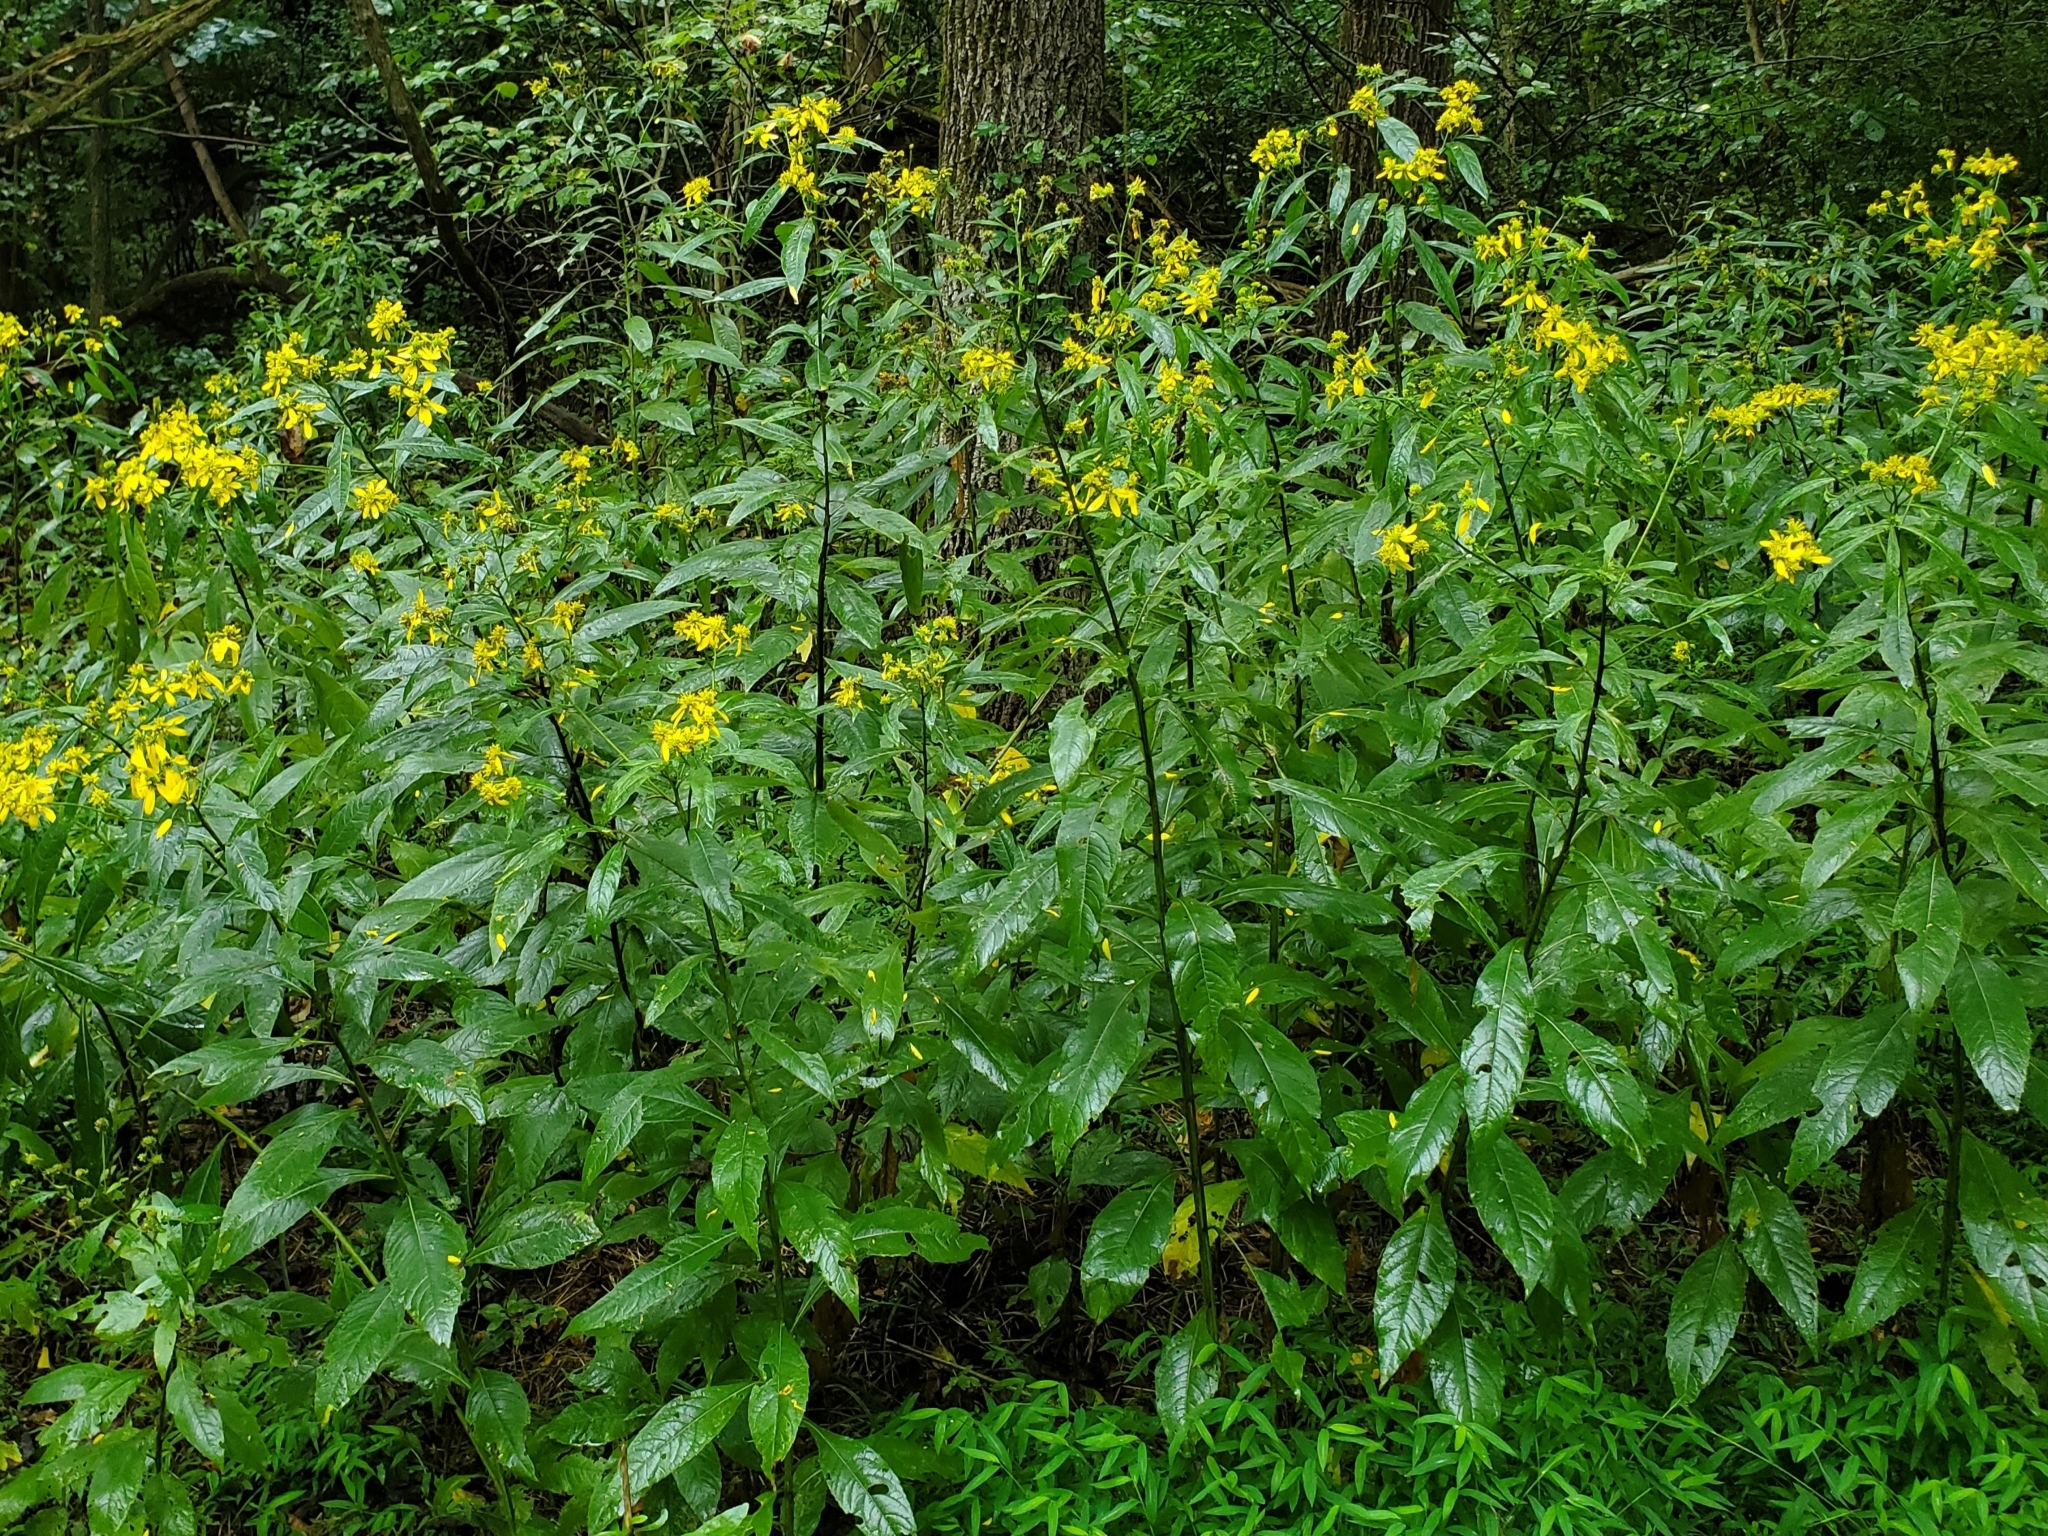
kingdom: Plantae
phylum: Tracheophyta
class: Magnoliopsida
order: Asterales
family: Asteraceae
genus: Verbesina
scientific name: Verbesina alternifolia
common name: Wingstem
